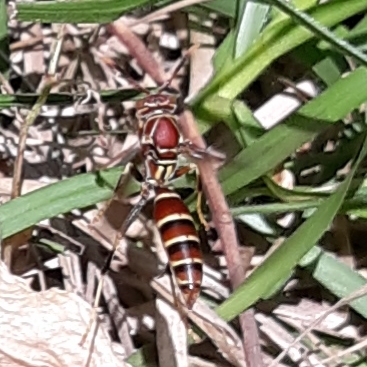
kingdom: Animalia
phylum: Arthropoda
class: Insecta
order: Hymenoptera
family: Eumenidae
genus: Polistes
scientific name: Polistes exclamans
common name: Paper wasp
